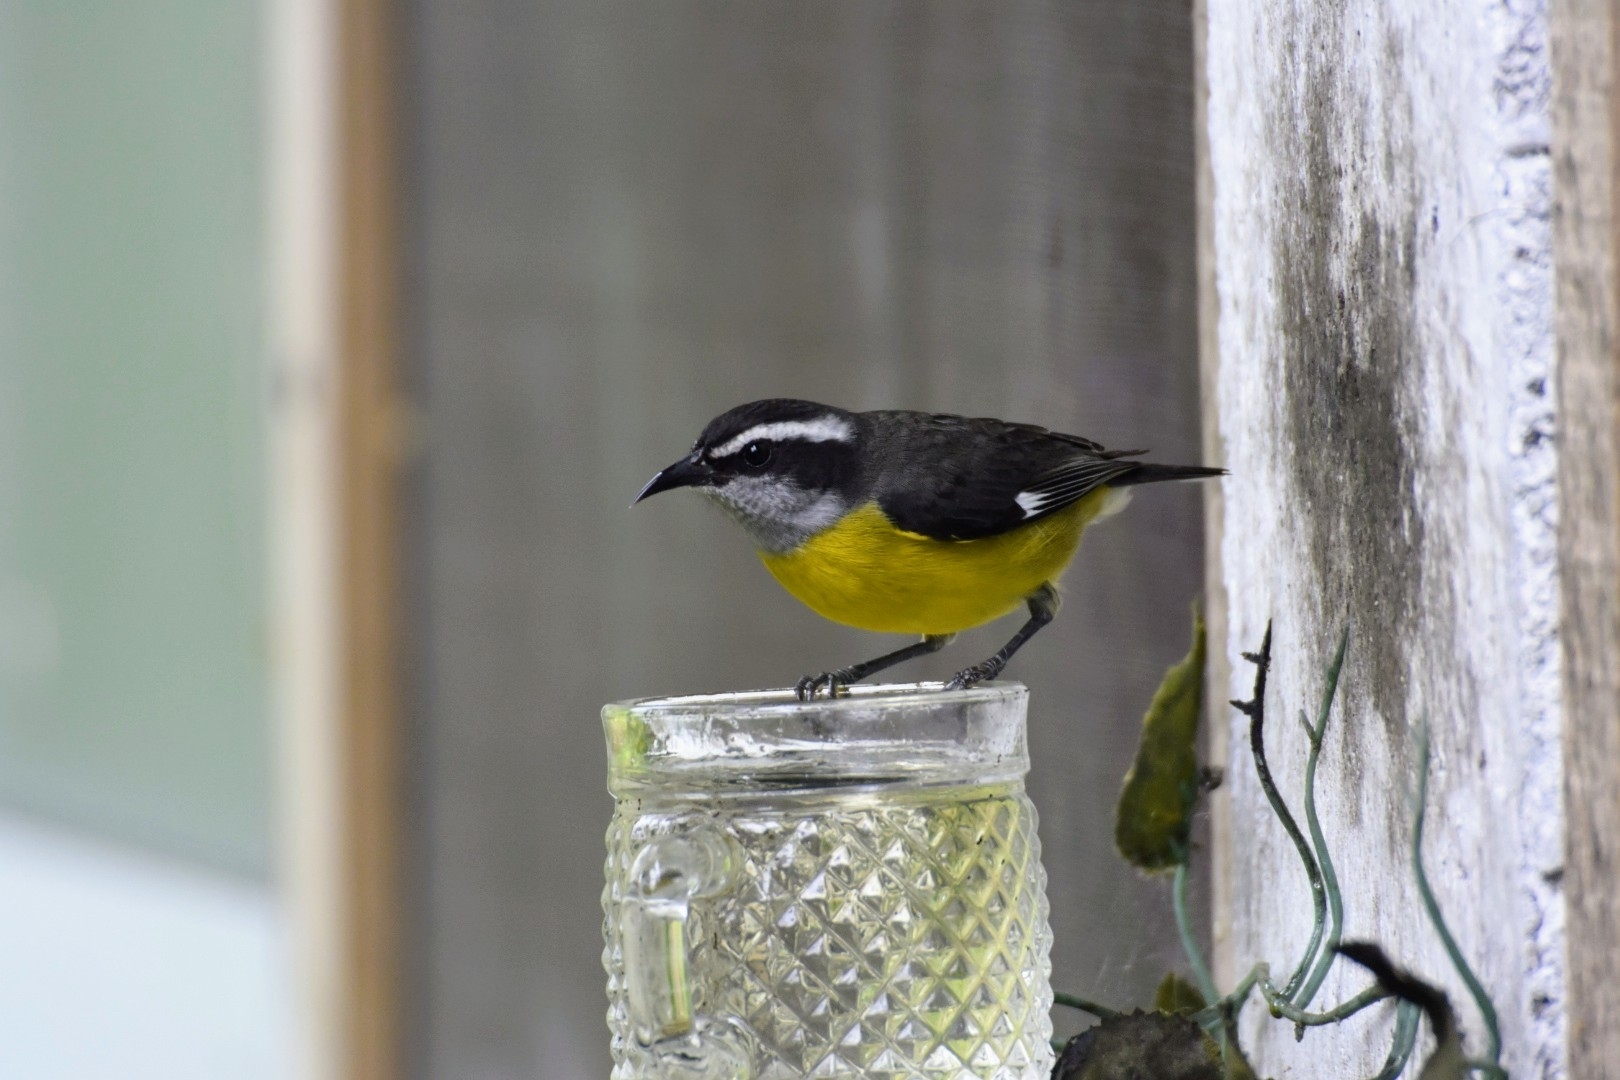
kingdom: Animalia
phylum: Chordata
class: Aves
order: Passeriformes
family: Thraupidae
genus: Coereba
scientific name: Coereba flaveola
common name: Bananaquit
